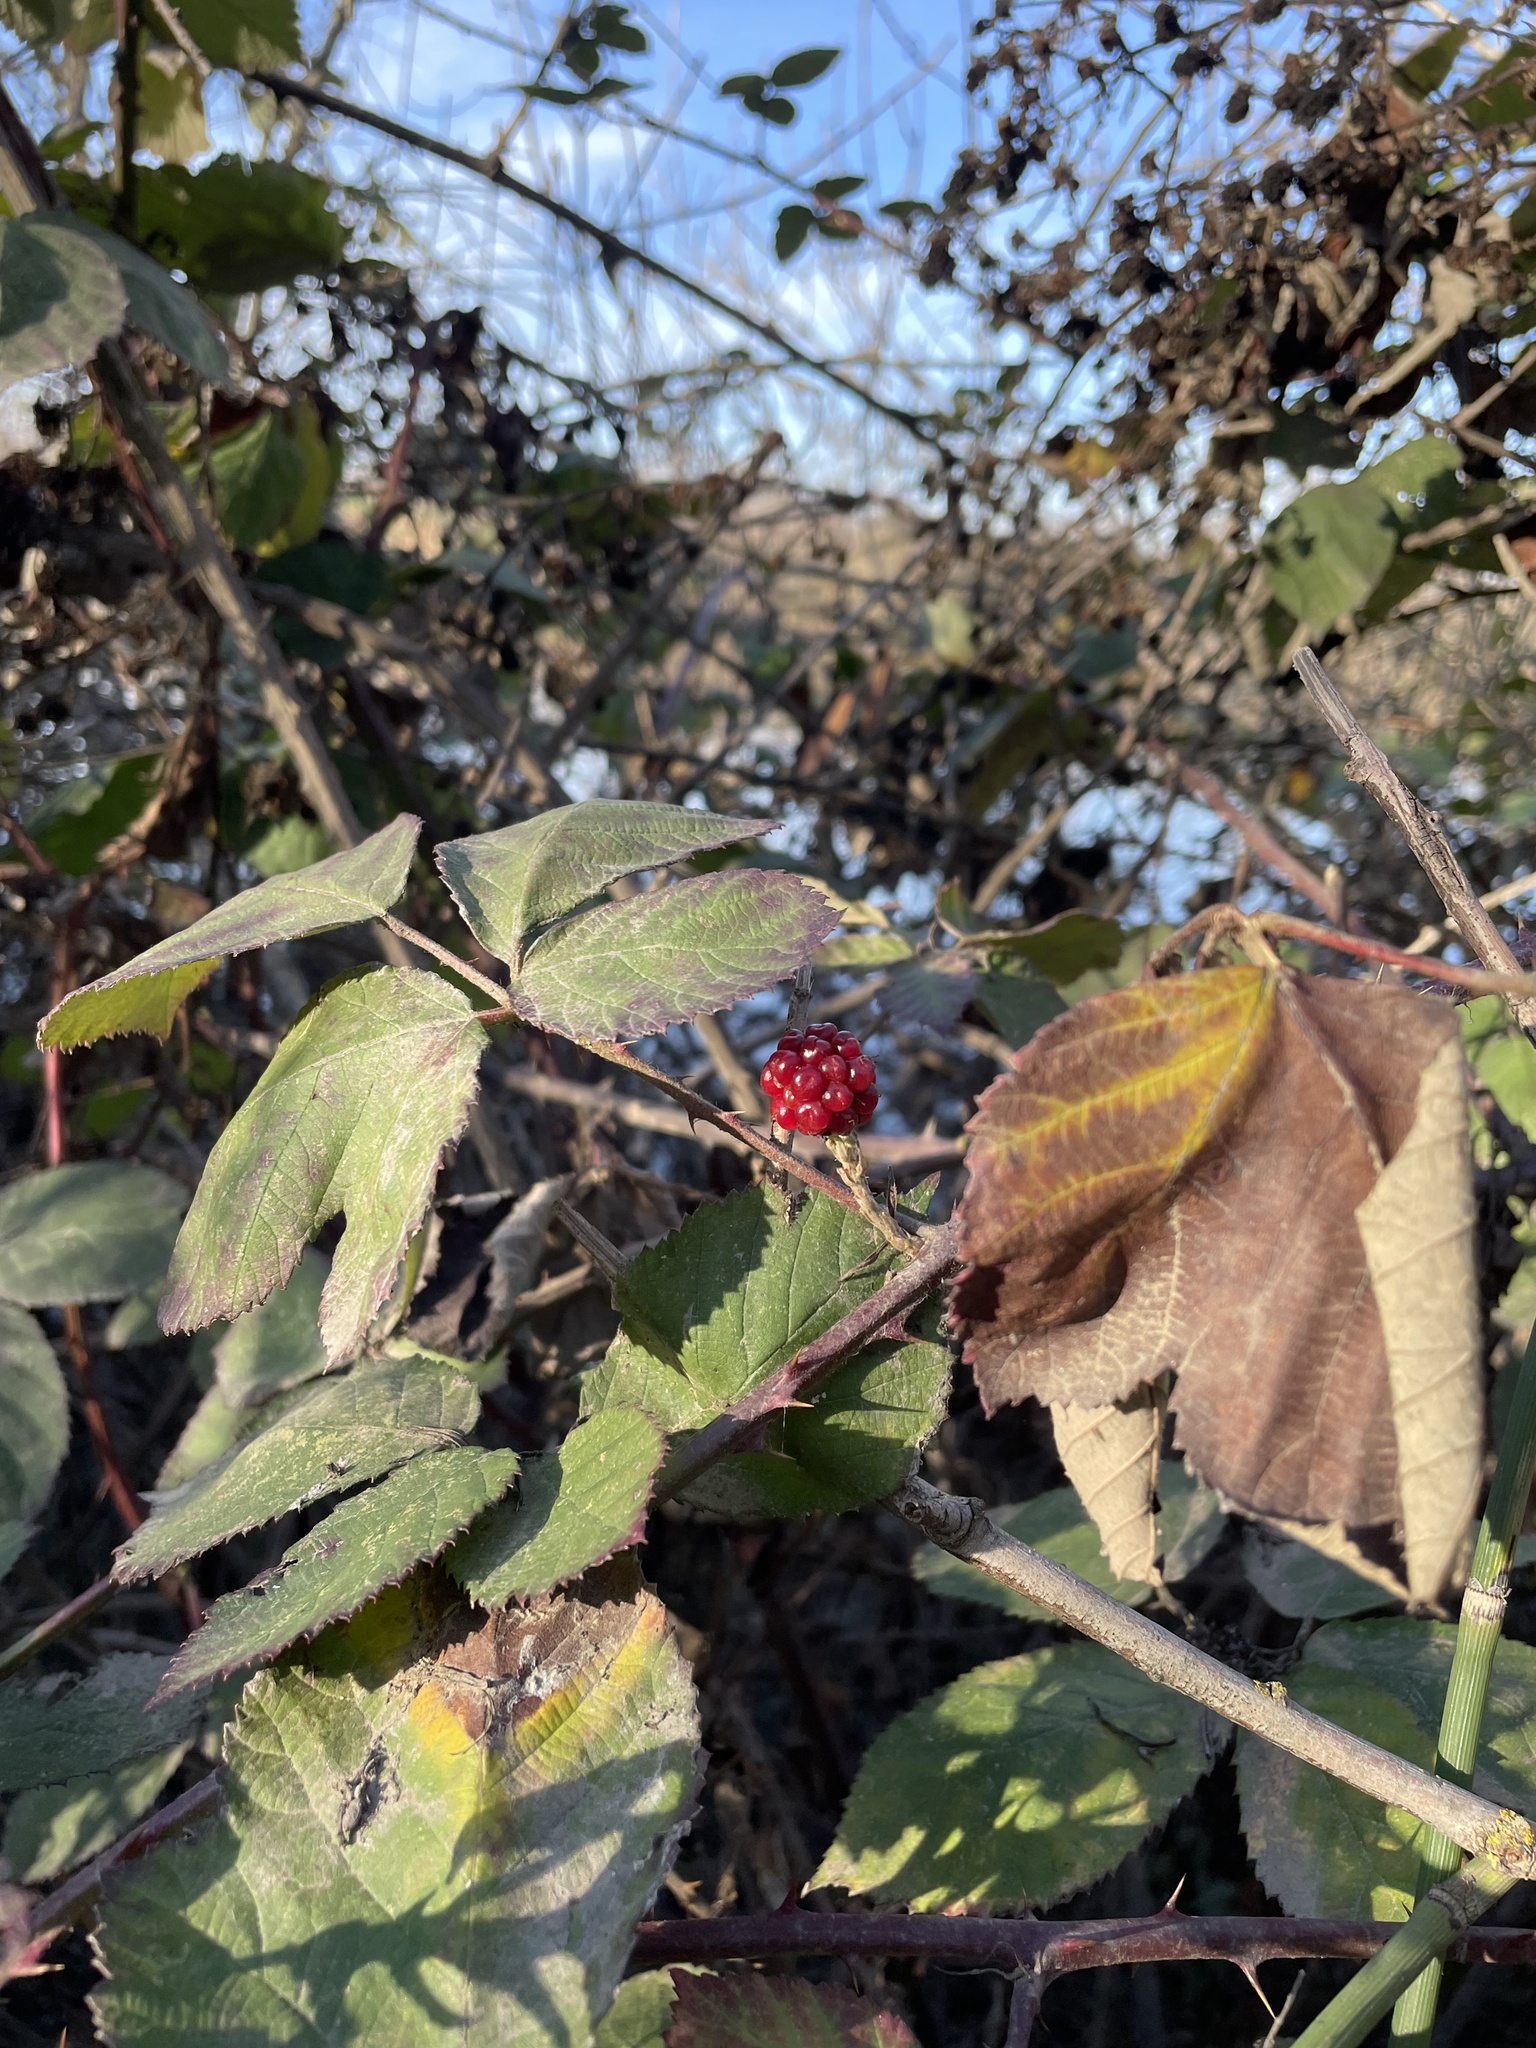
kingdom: Plantae
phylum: Tracheophyta
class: Magnoliopsida
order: Rosales
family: Rosaceae
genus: Rubus
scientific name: Rubus armeniacus
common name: Himalayan blackberry
